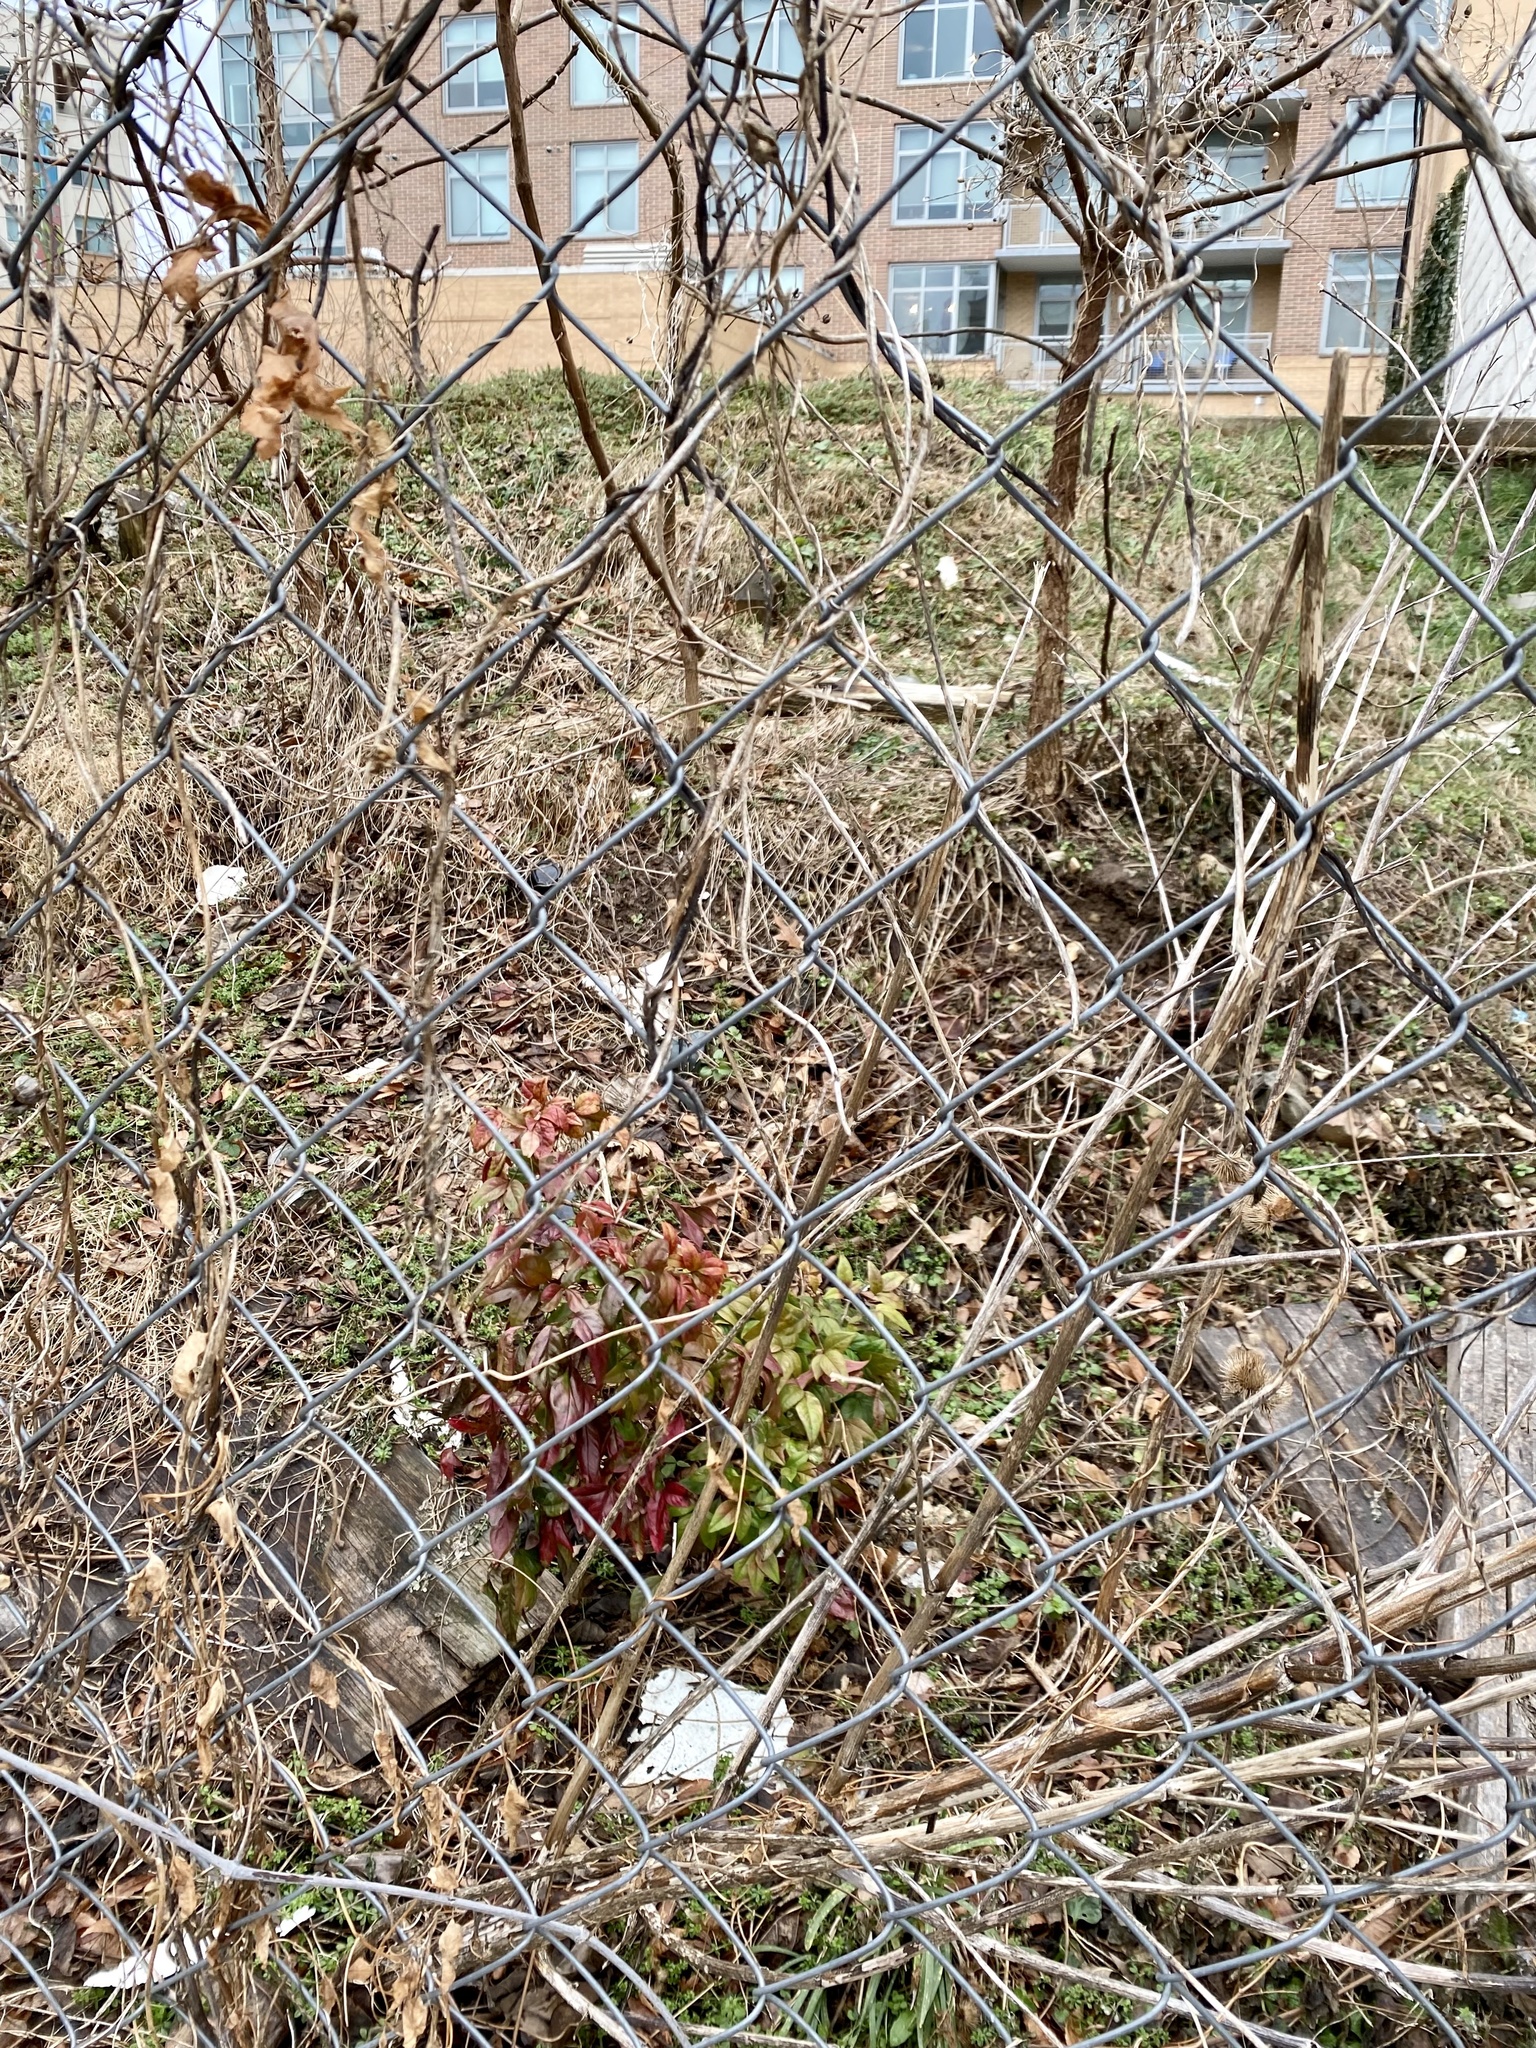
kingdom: Plantae
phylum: Tracheophyta
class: Magnoliopsida
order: Ranunculales
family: Berberidaceae
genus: Nandina
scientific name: Nandina domestica
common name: Sacred bamboo
